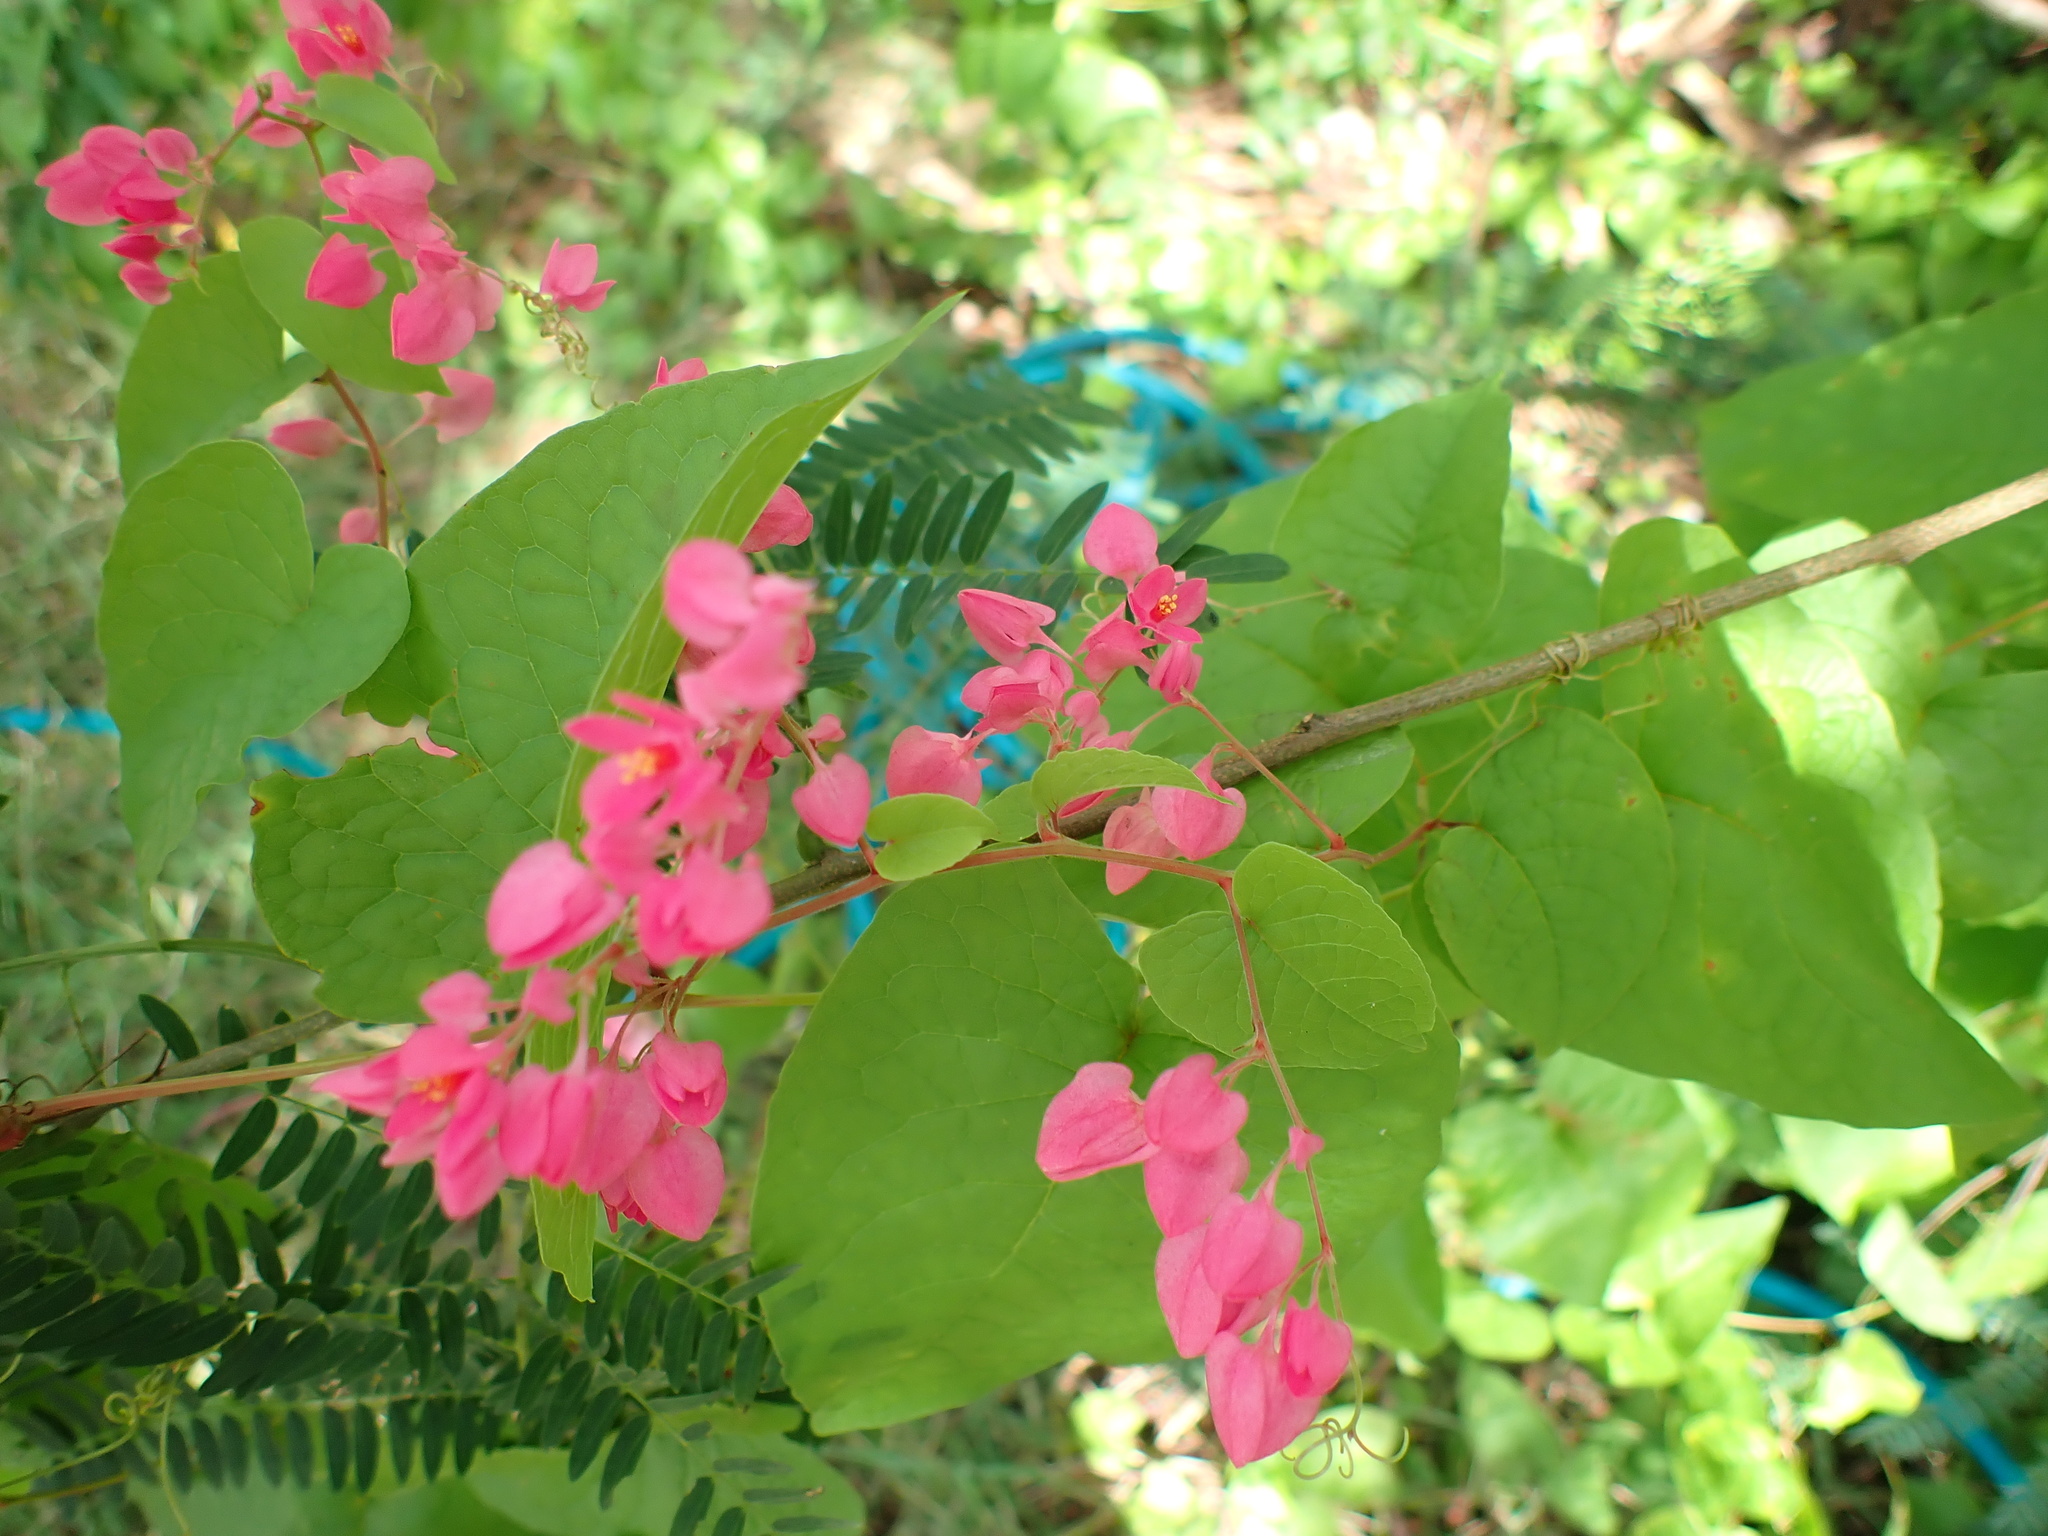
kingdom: Plantae
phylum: Tracheophyta
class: Magnoliopsida
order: Caryophyllales
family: Polygonaceae
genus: Antigonon
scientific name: Antigonon leptopus
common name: Coral vine
